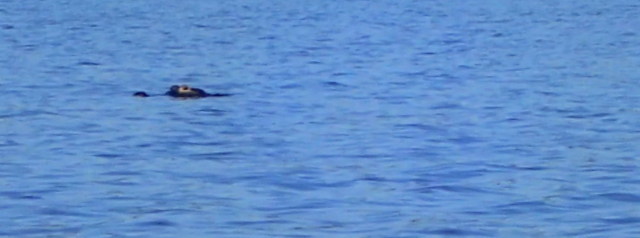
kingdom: Animalia
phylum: Chordata
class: Crocodylia
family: Alligatoridae
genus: Alligator
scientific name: Alligator mississippiensis
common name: American alligator
